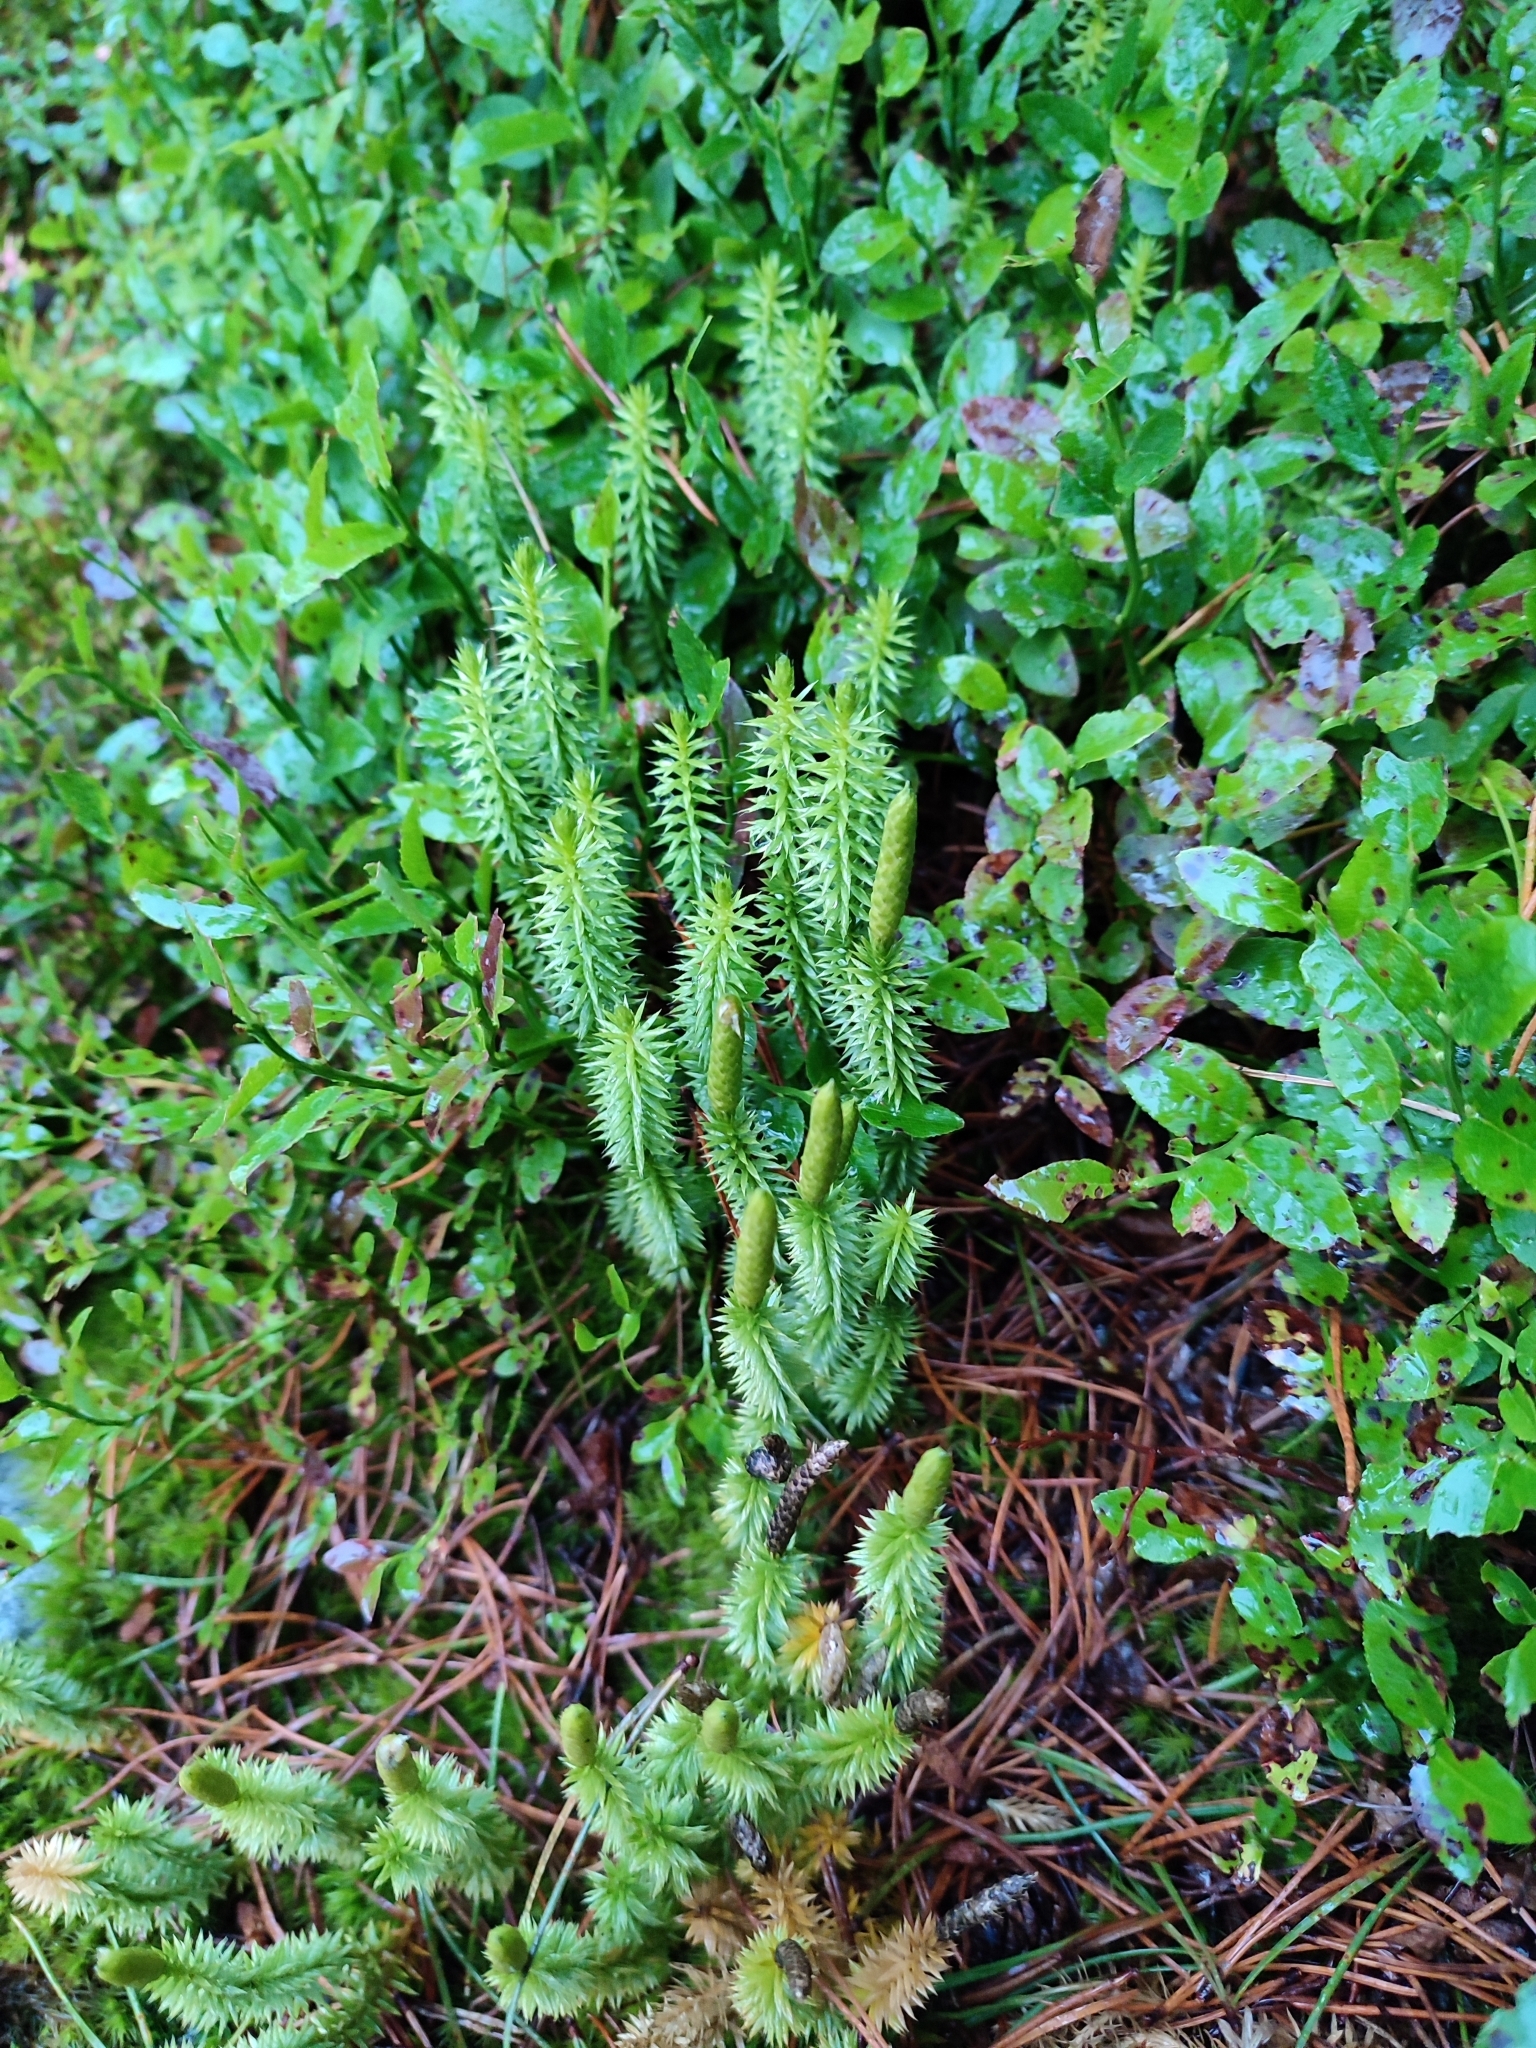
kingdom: Plantae
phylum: Tracheophyta
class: Lycopodiopsida
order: Lycopodiales
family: Lycopodiaceae
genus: Spinulum
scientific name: Spinulum annotinum
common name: Interrupted club-moss
